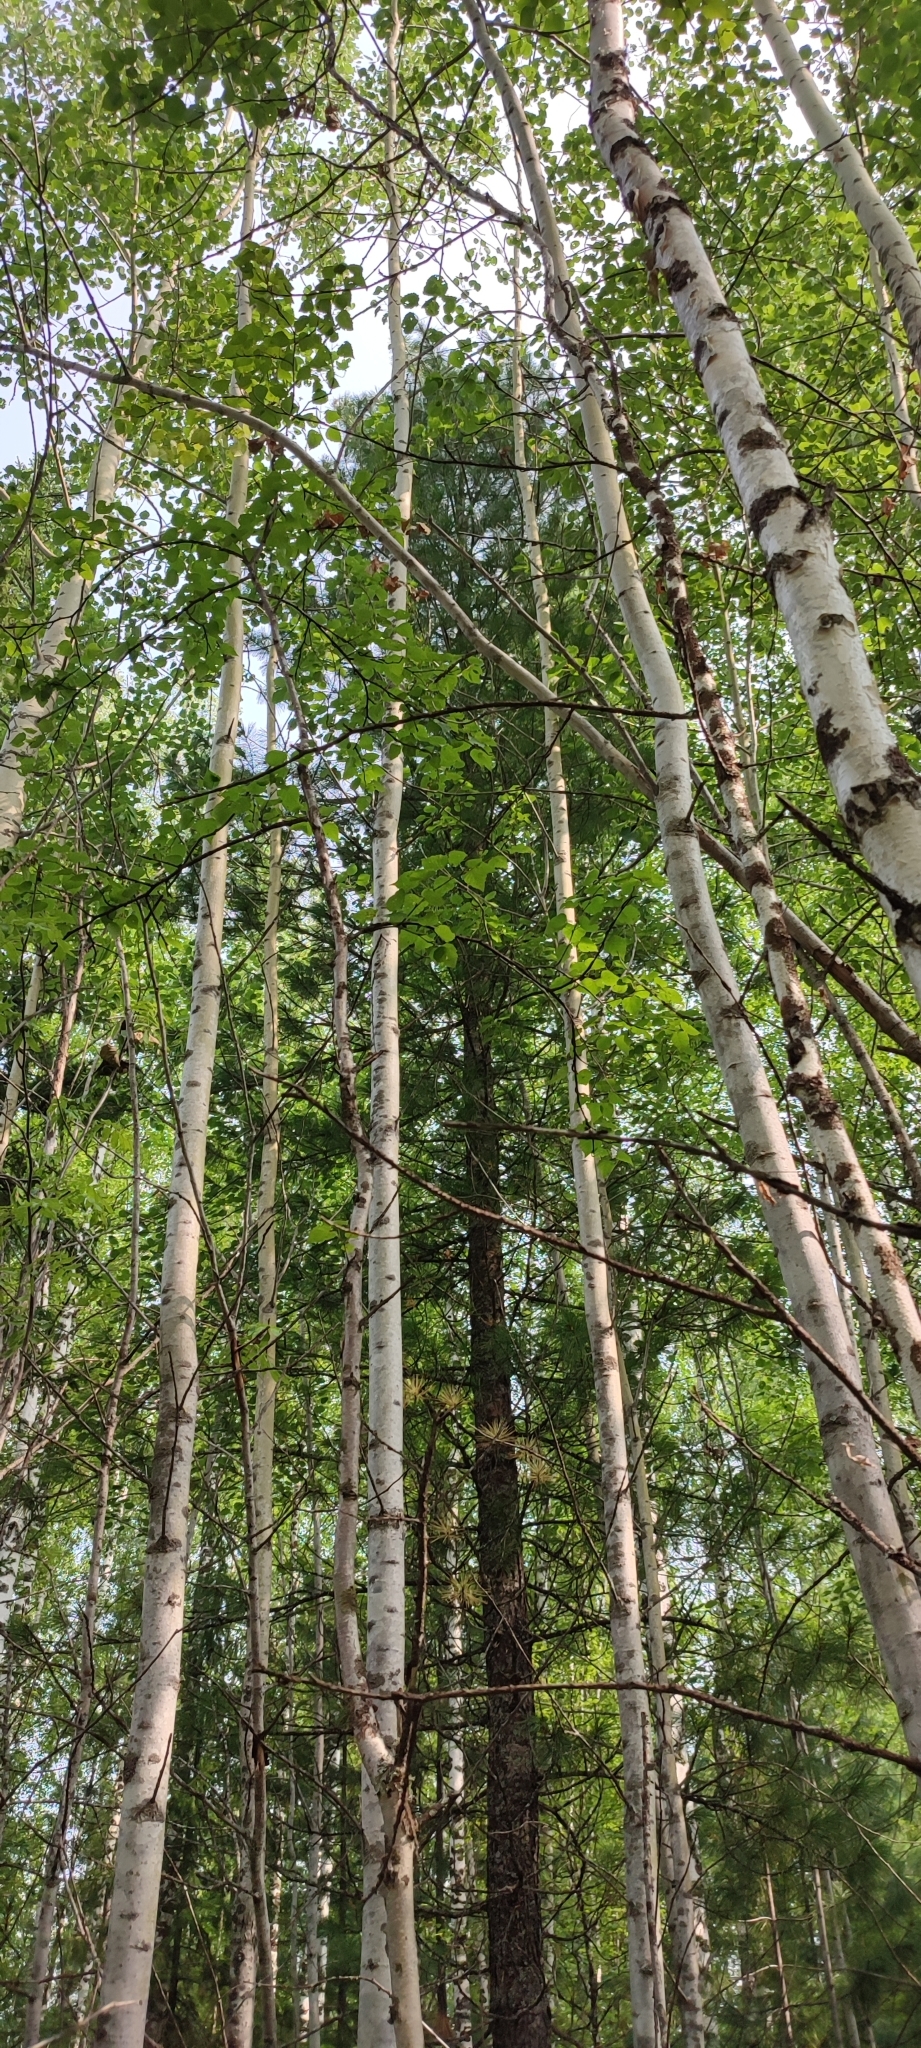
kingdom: Plantae
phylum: Tracheophyta
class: Magnoliopsida
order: Fagales
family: Betulaceae
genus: Betula
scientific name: Betula pubescens
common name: Downy birch
